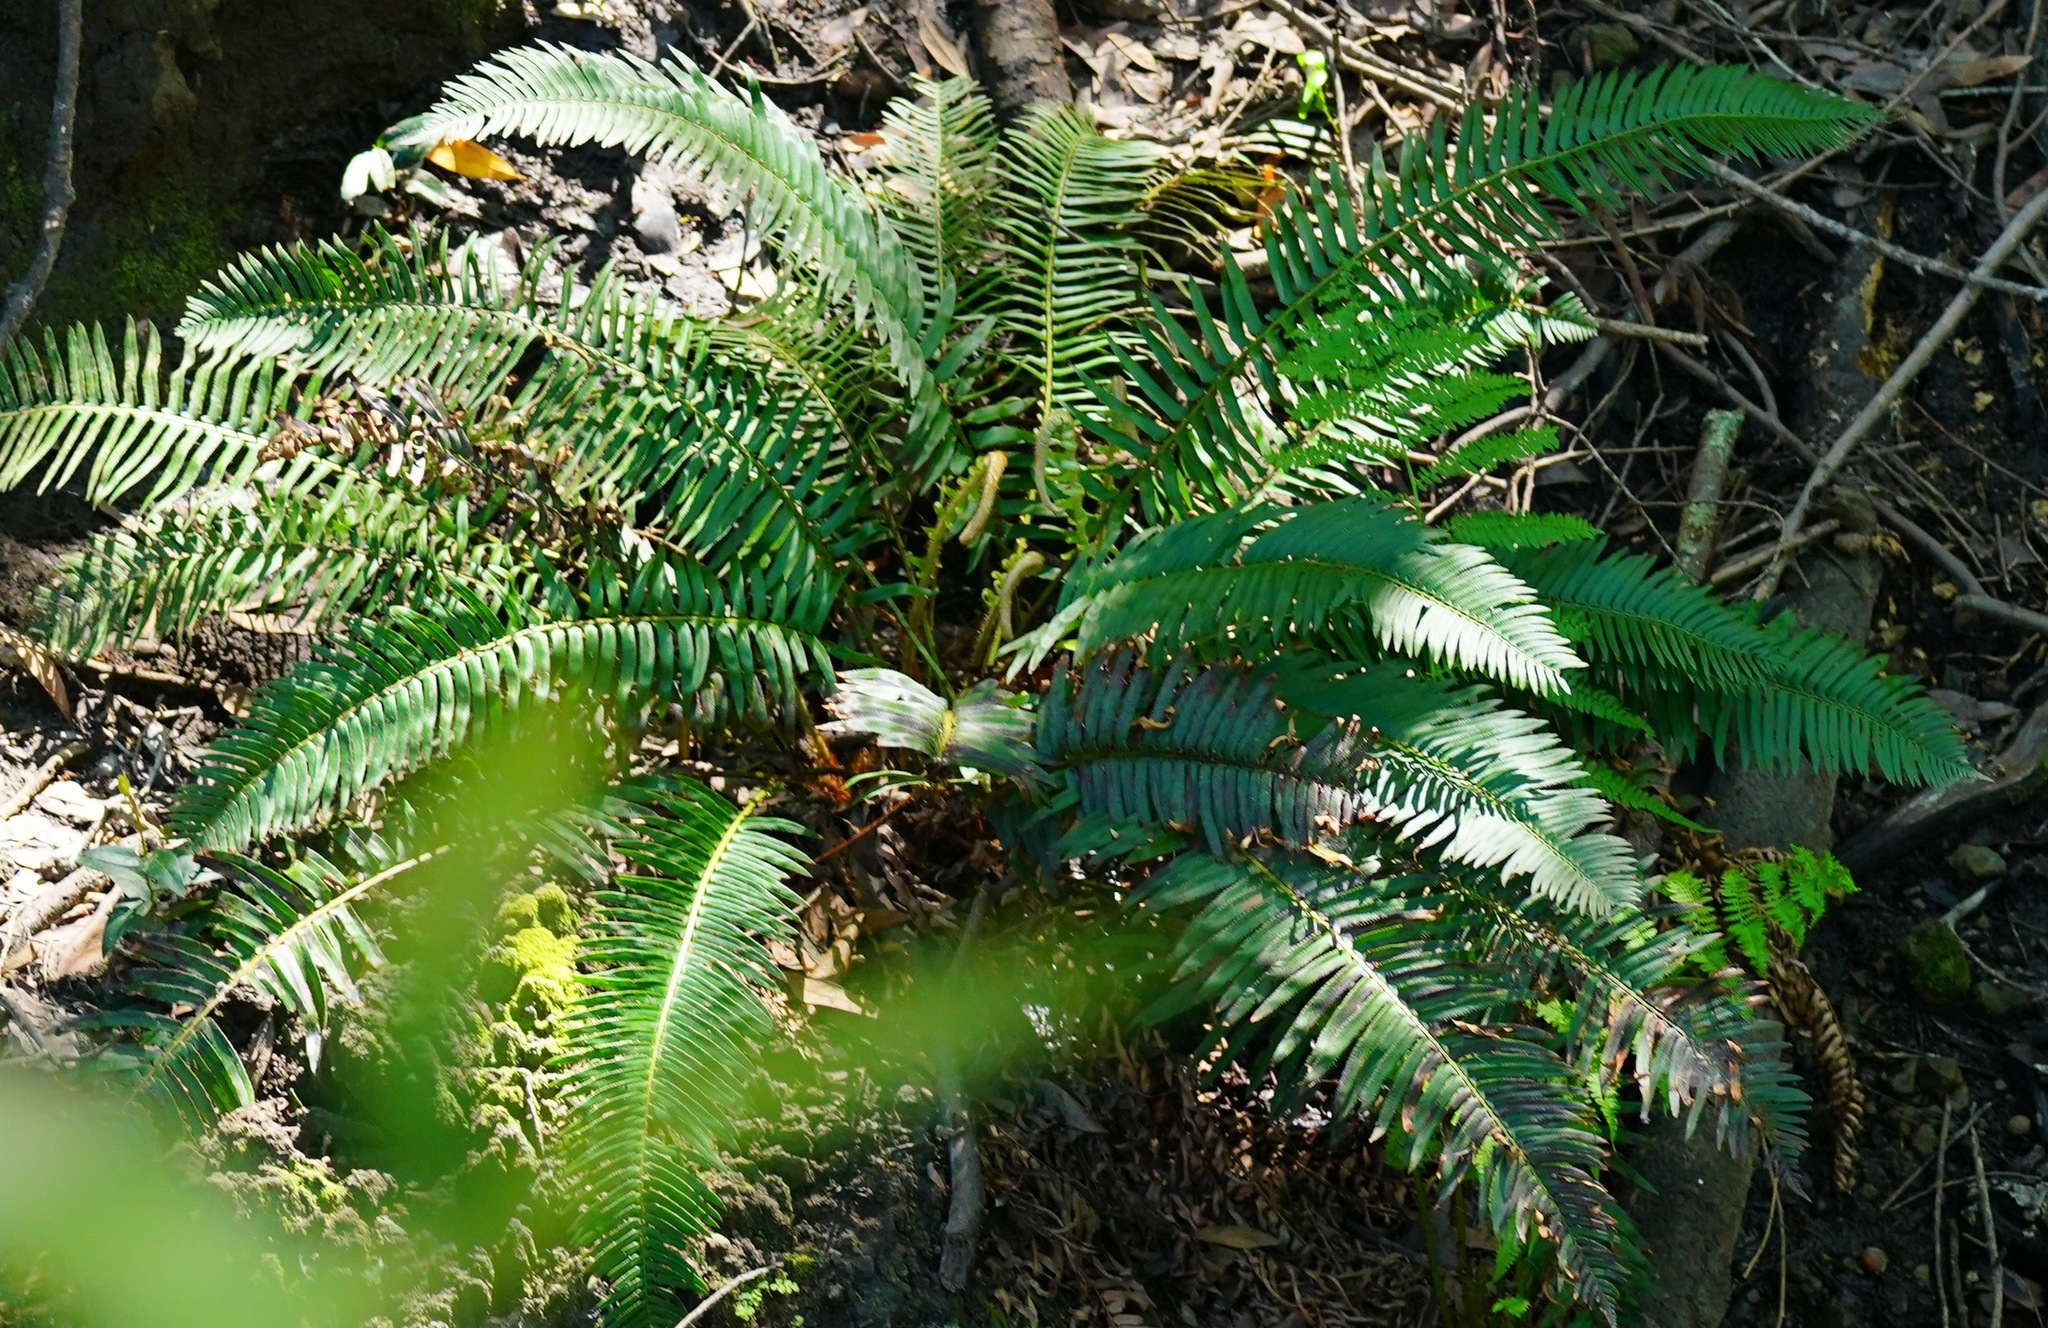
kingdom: Plantae
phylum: Tracheophyta
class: Polypodiopsida
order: Polypodiales
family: Dryopteridaceae
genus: Polystichum
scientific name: Polystichum munitum
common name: Western sword-fern
